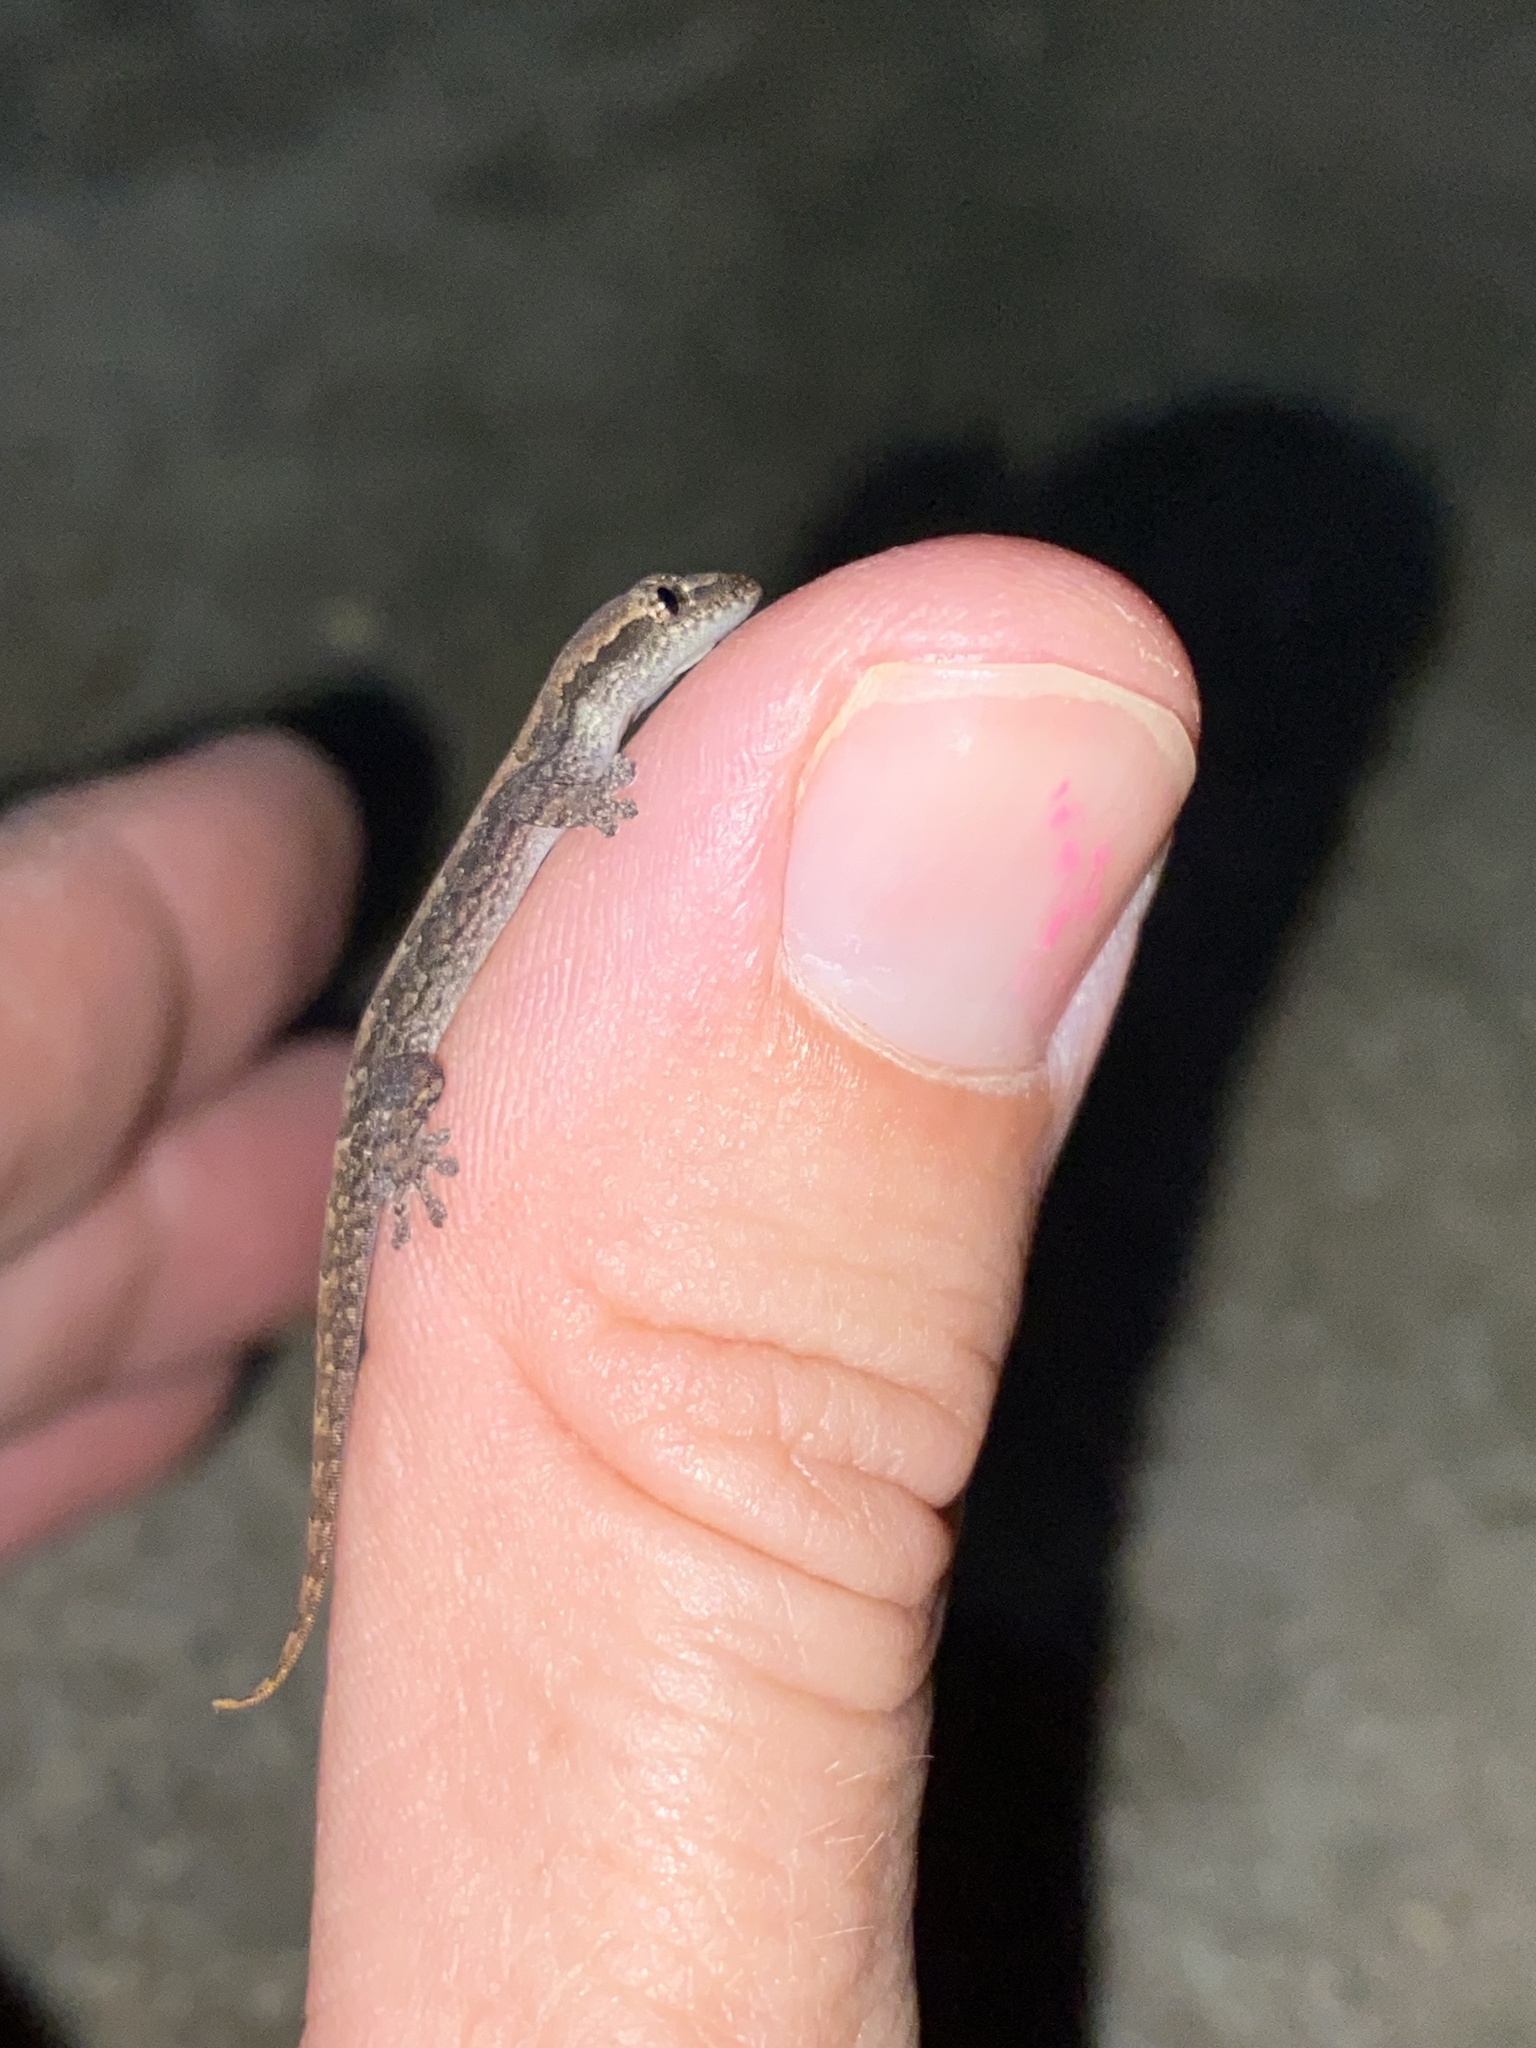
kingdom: Animalia
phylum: Chordata
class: Squamata
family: Gekkonidae
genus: Lepidodactylus
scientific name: Lepidodactylus lugubris
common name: Mourning gecko
